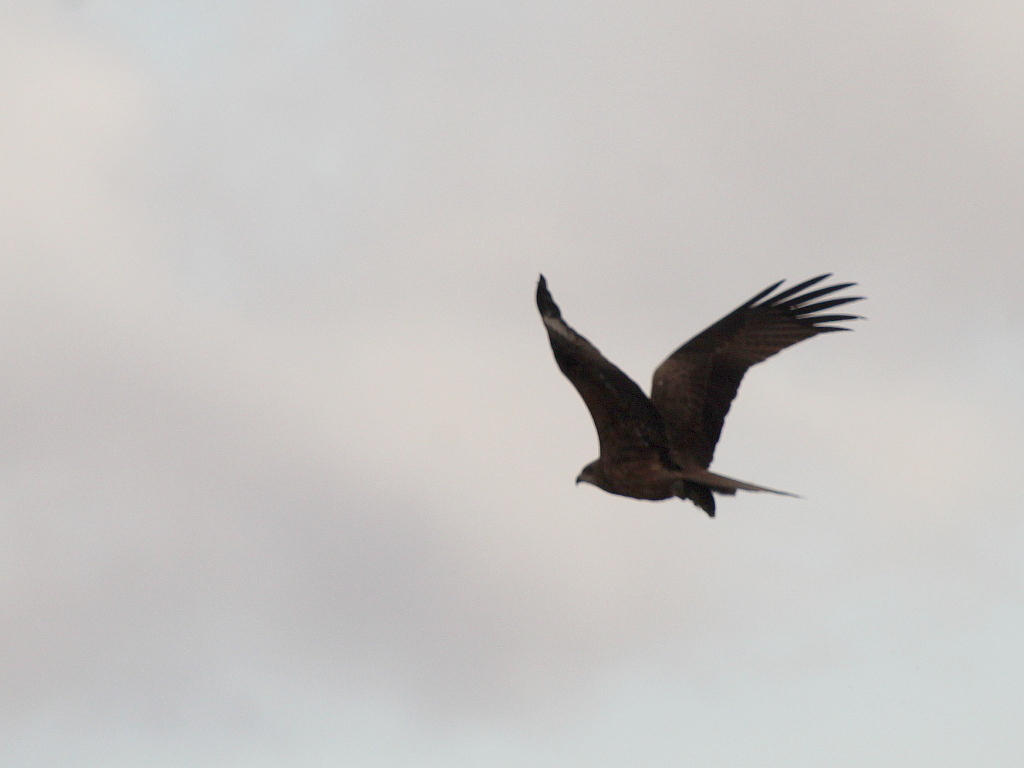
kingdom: Animalia
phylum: Chordata
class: Aves
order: Accipitriformes
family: Accipitridae
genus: Milvus
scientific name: Milvus migrans
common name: Black kite
